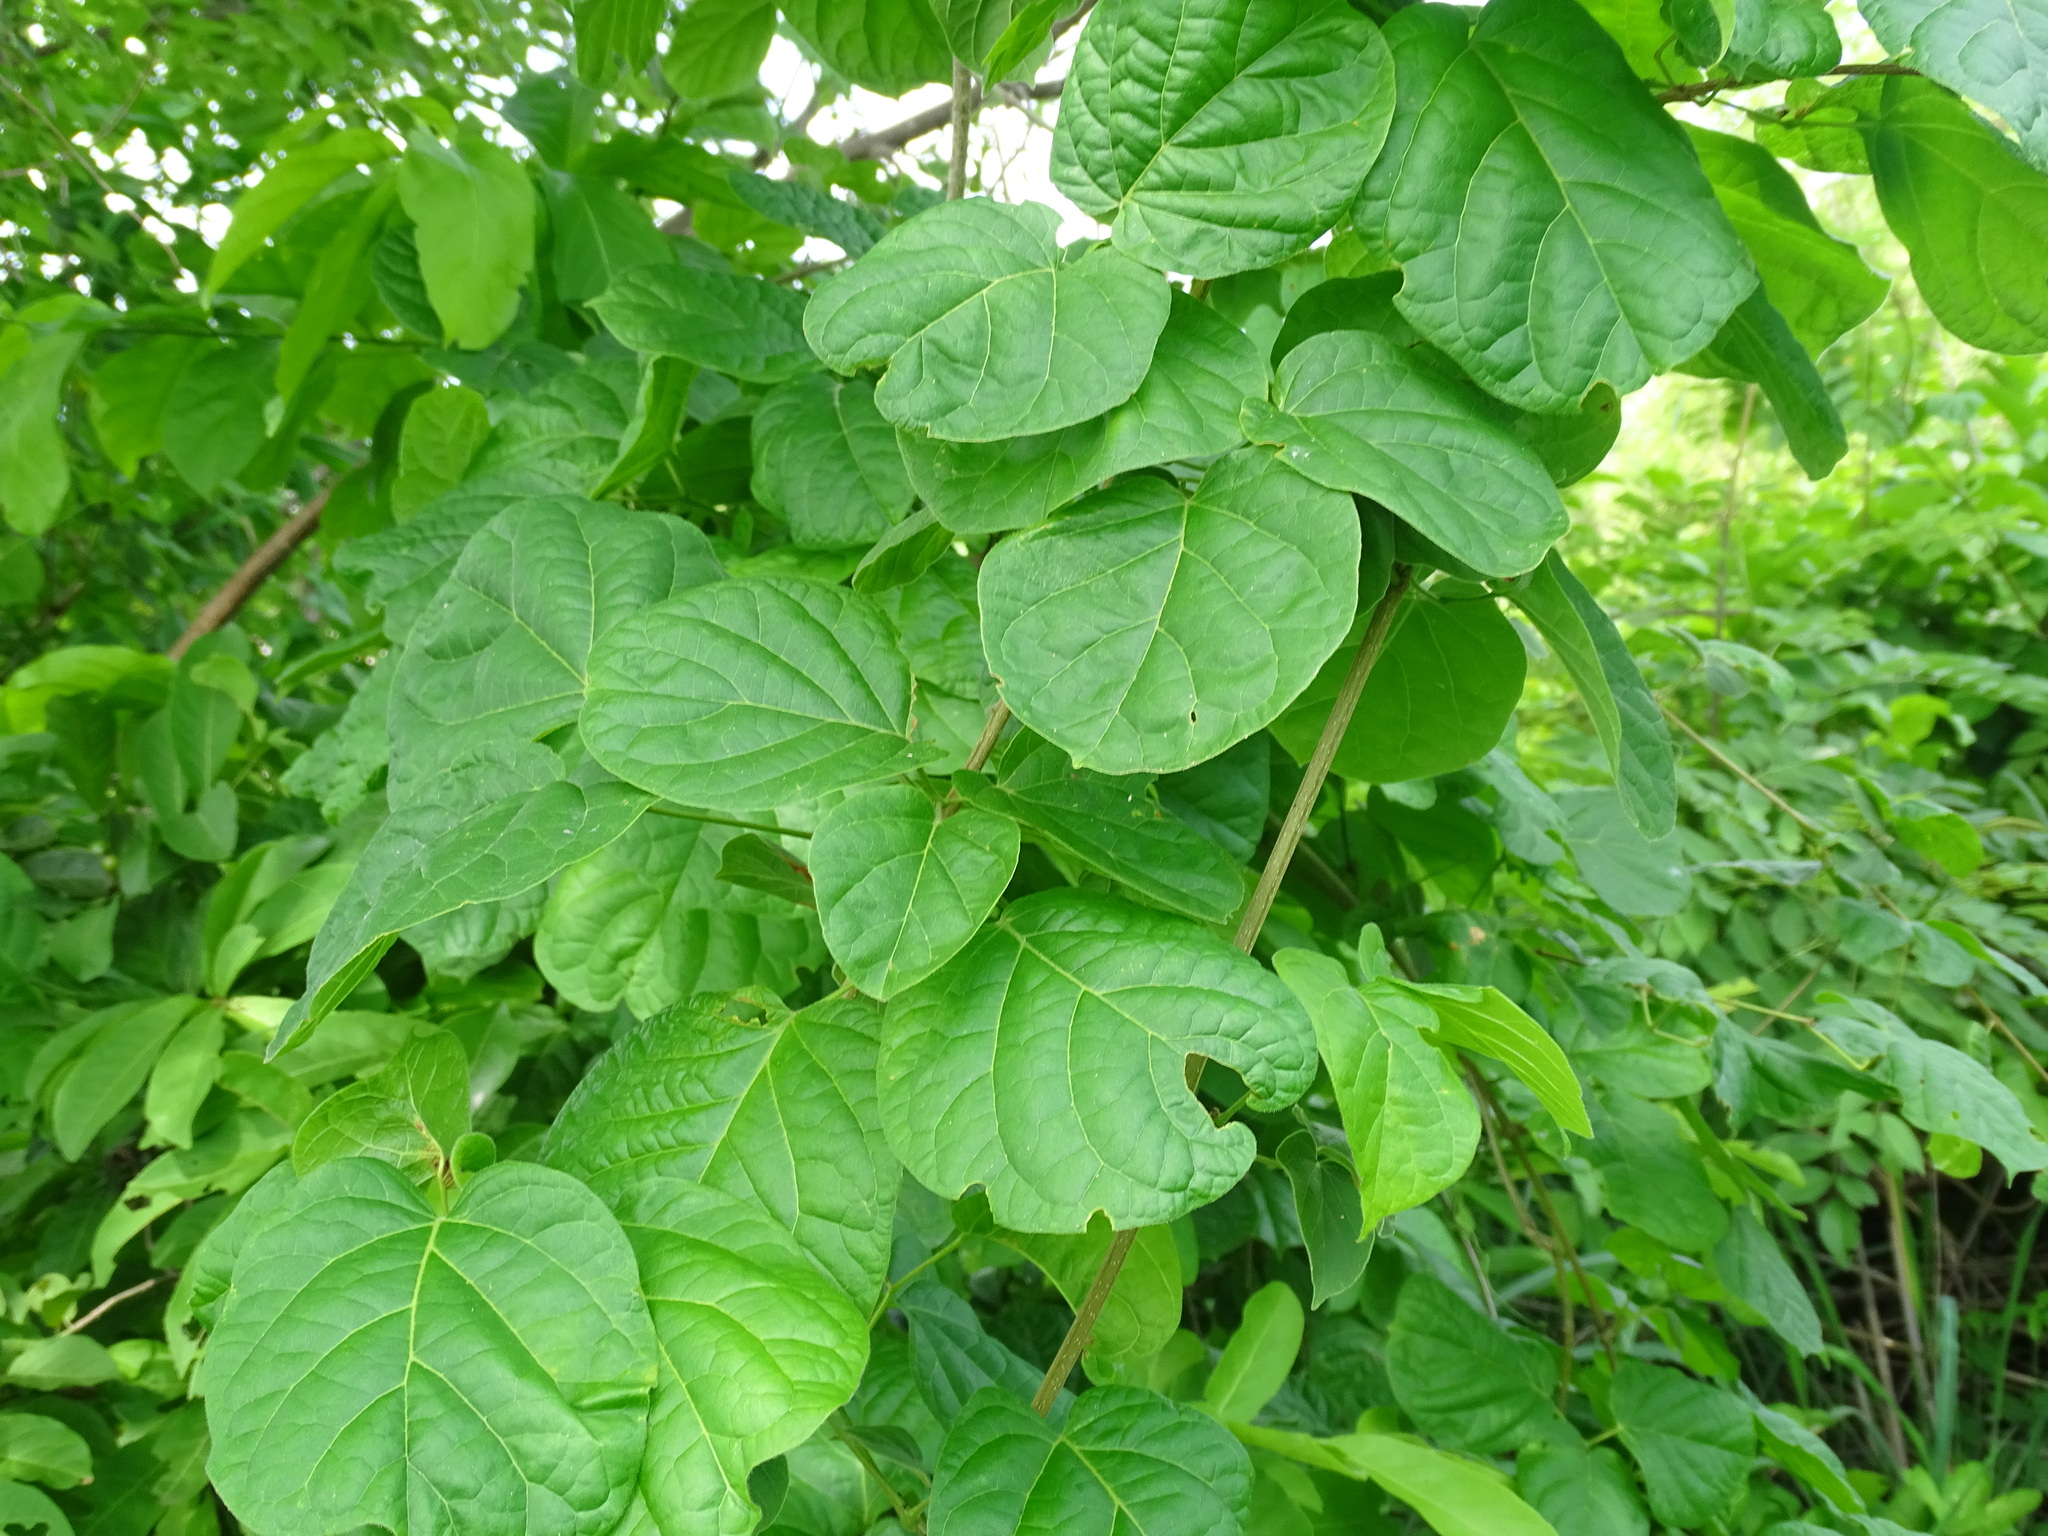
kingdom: Plantae
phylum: Tracheophyta
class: Magnoliopsida
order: Lamiales
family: Bignoniaceae
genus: Amphilophium
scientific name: Amphilophium crucigerum
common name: Monkey comb
